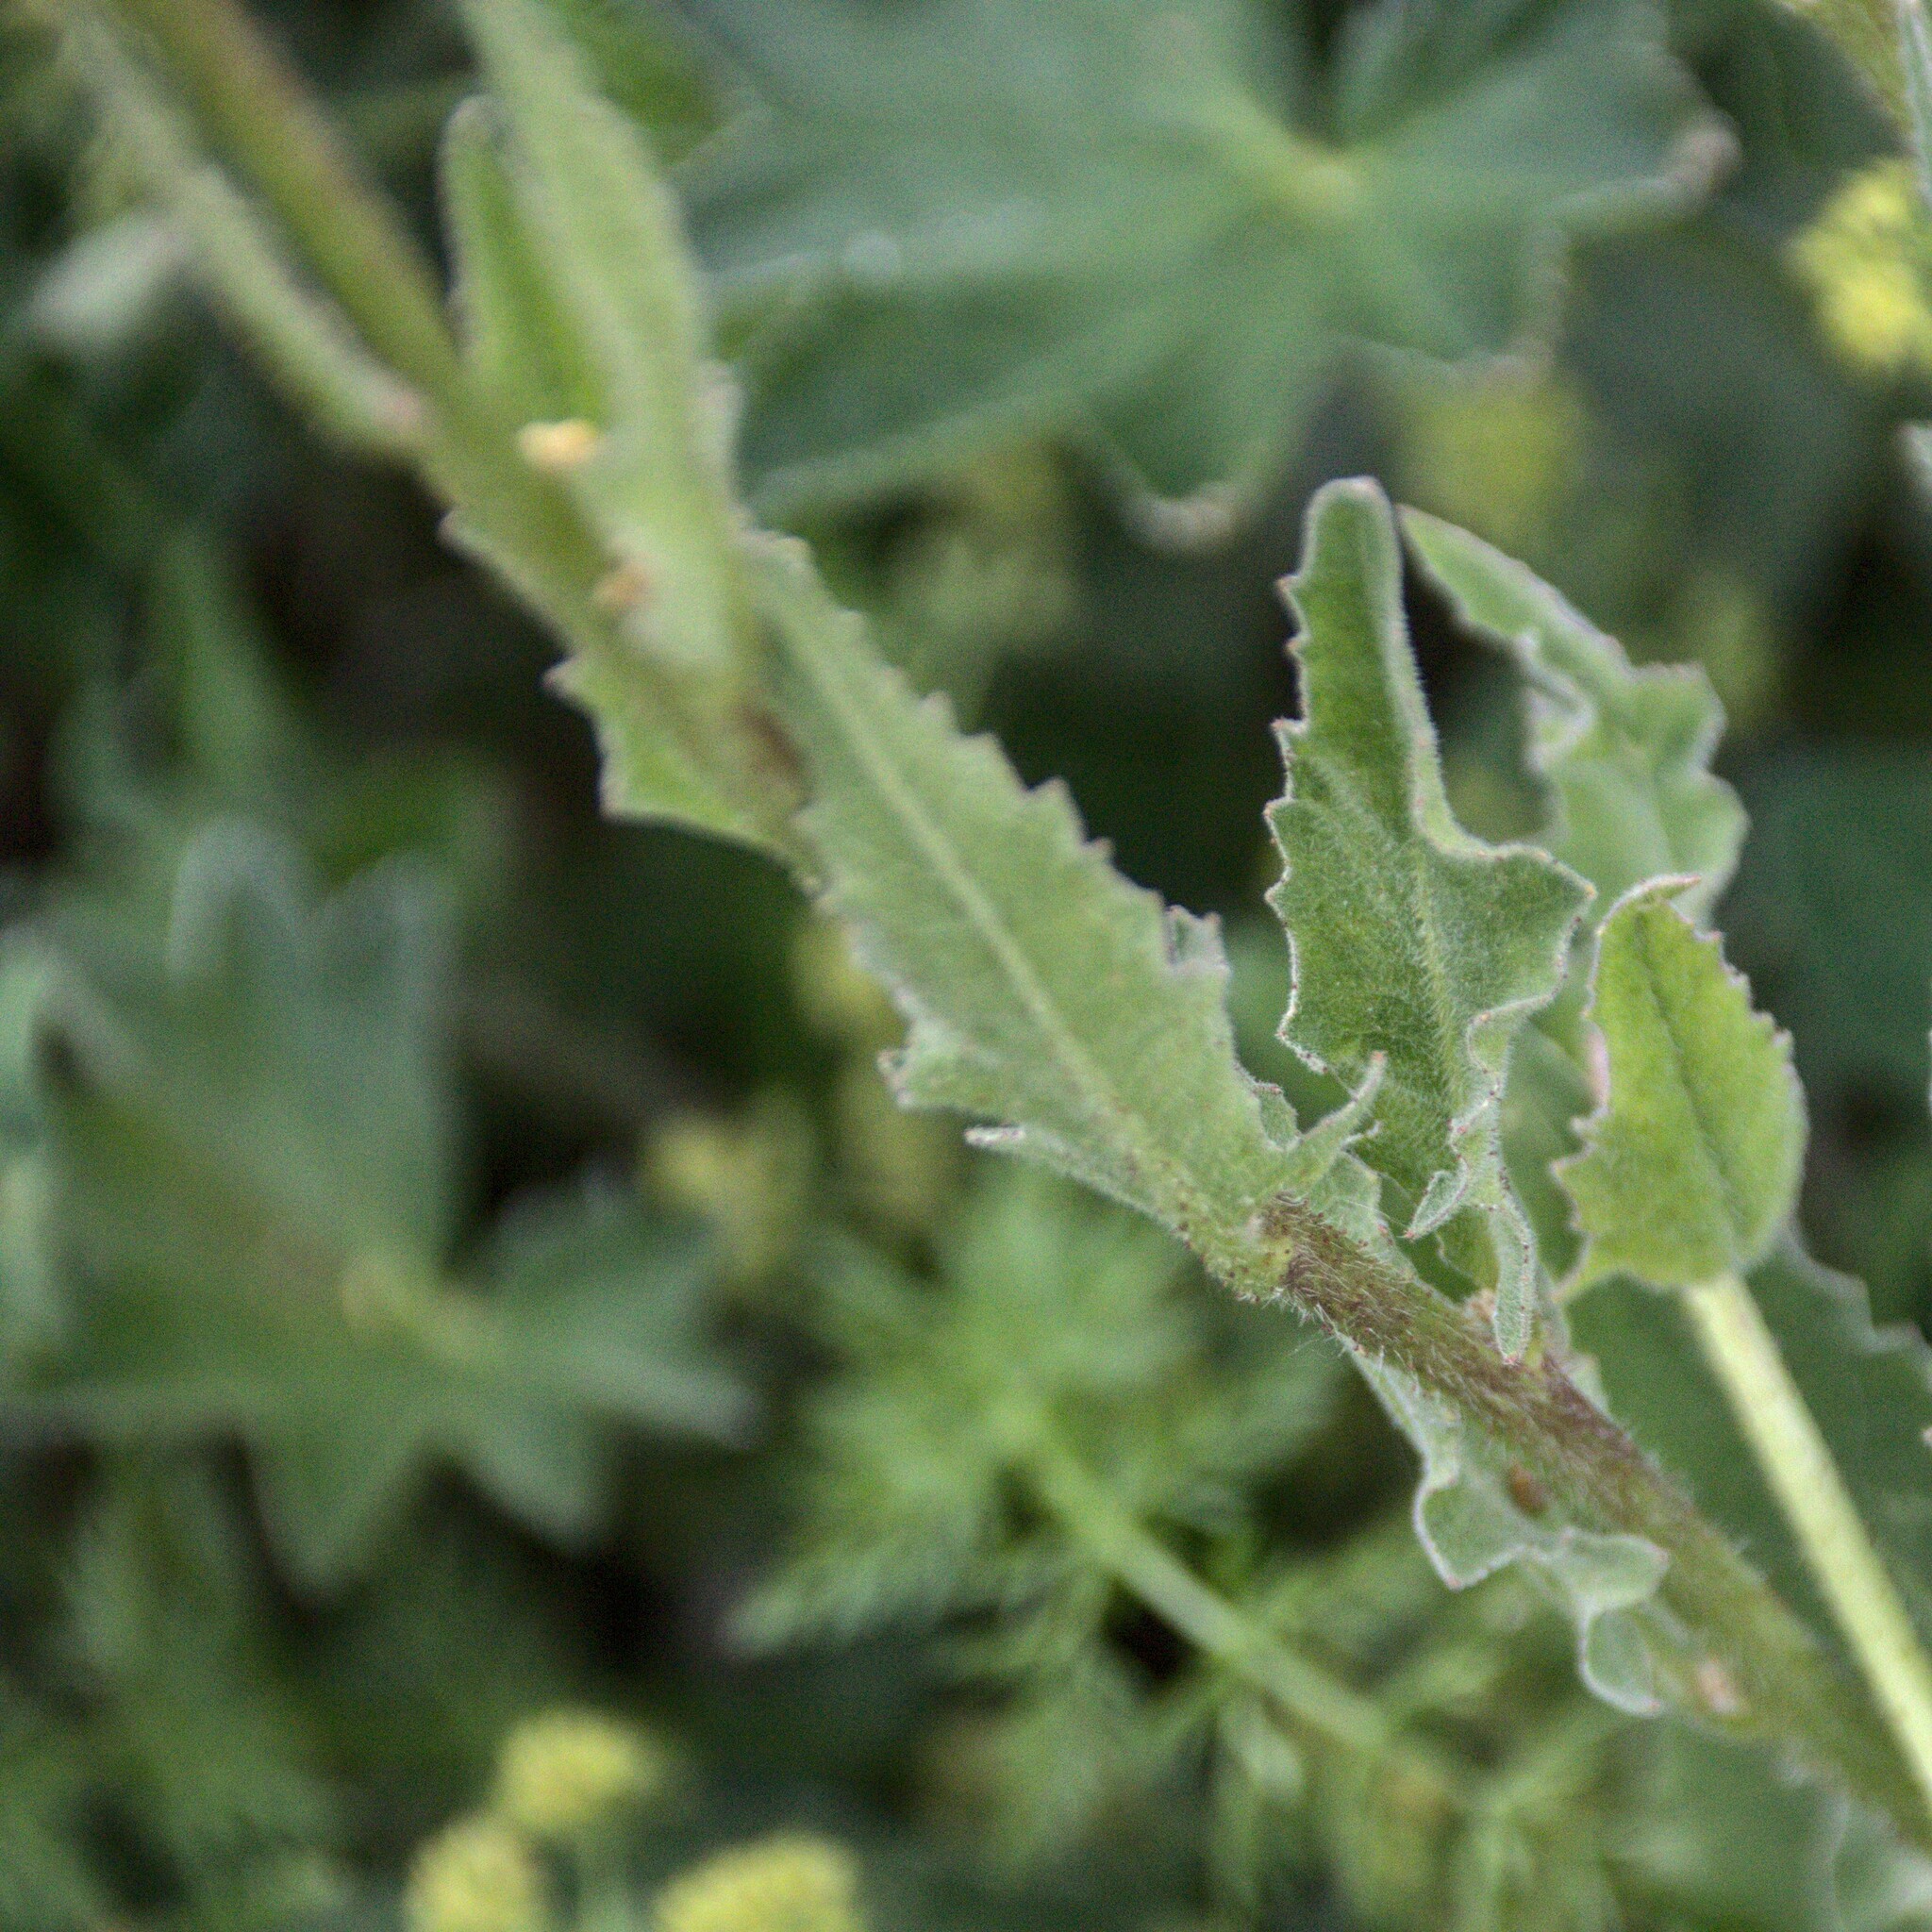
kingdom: Plantae
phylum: Tracheophyta
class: Magnoliopsida
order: Brassicales
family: Brassicaceae
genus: Bunias
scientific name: Bunias orientalis
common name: Warty-cabbage
